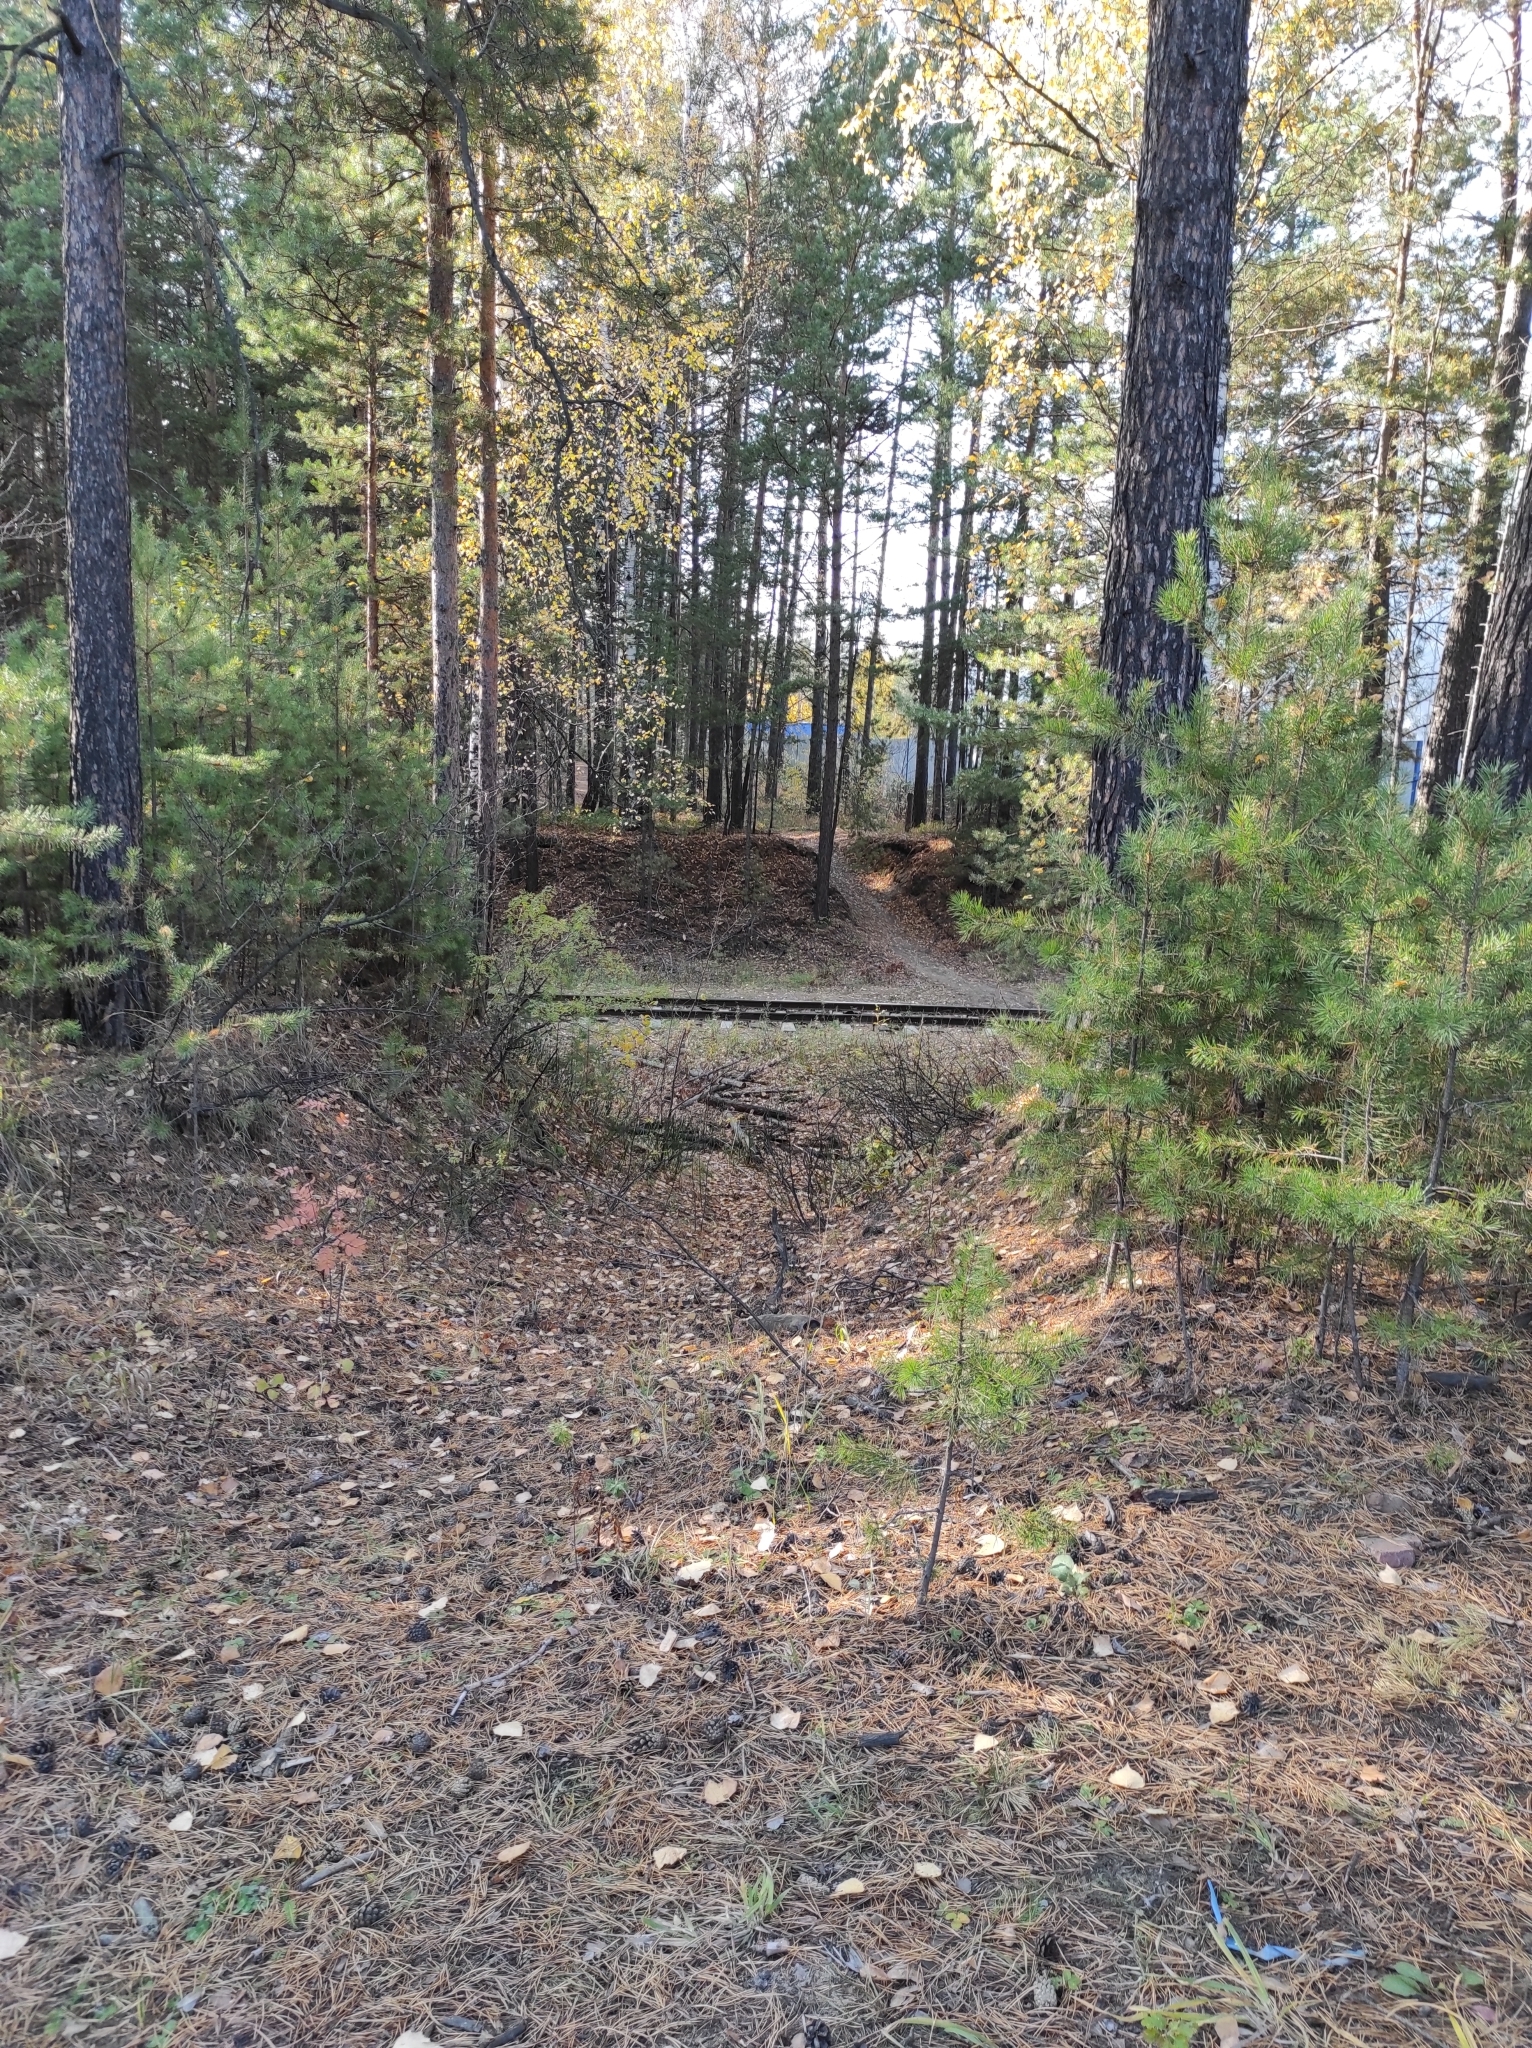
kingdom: Plantae
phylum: Tracheophyta
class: Pinopsida
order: Pinales
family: Pinaceae
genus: Pinus
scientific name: Pinus sylvestris
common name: Scots pine
